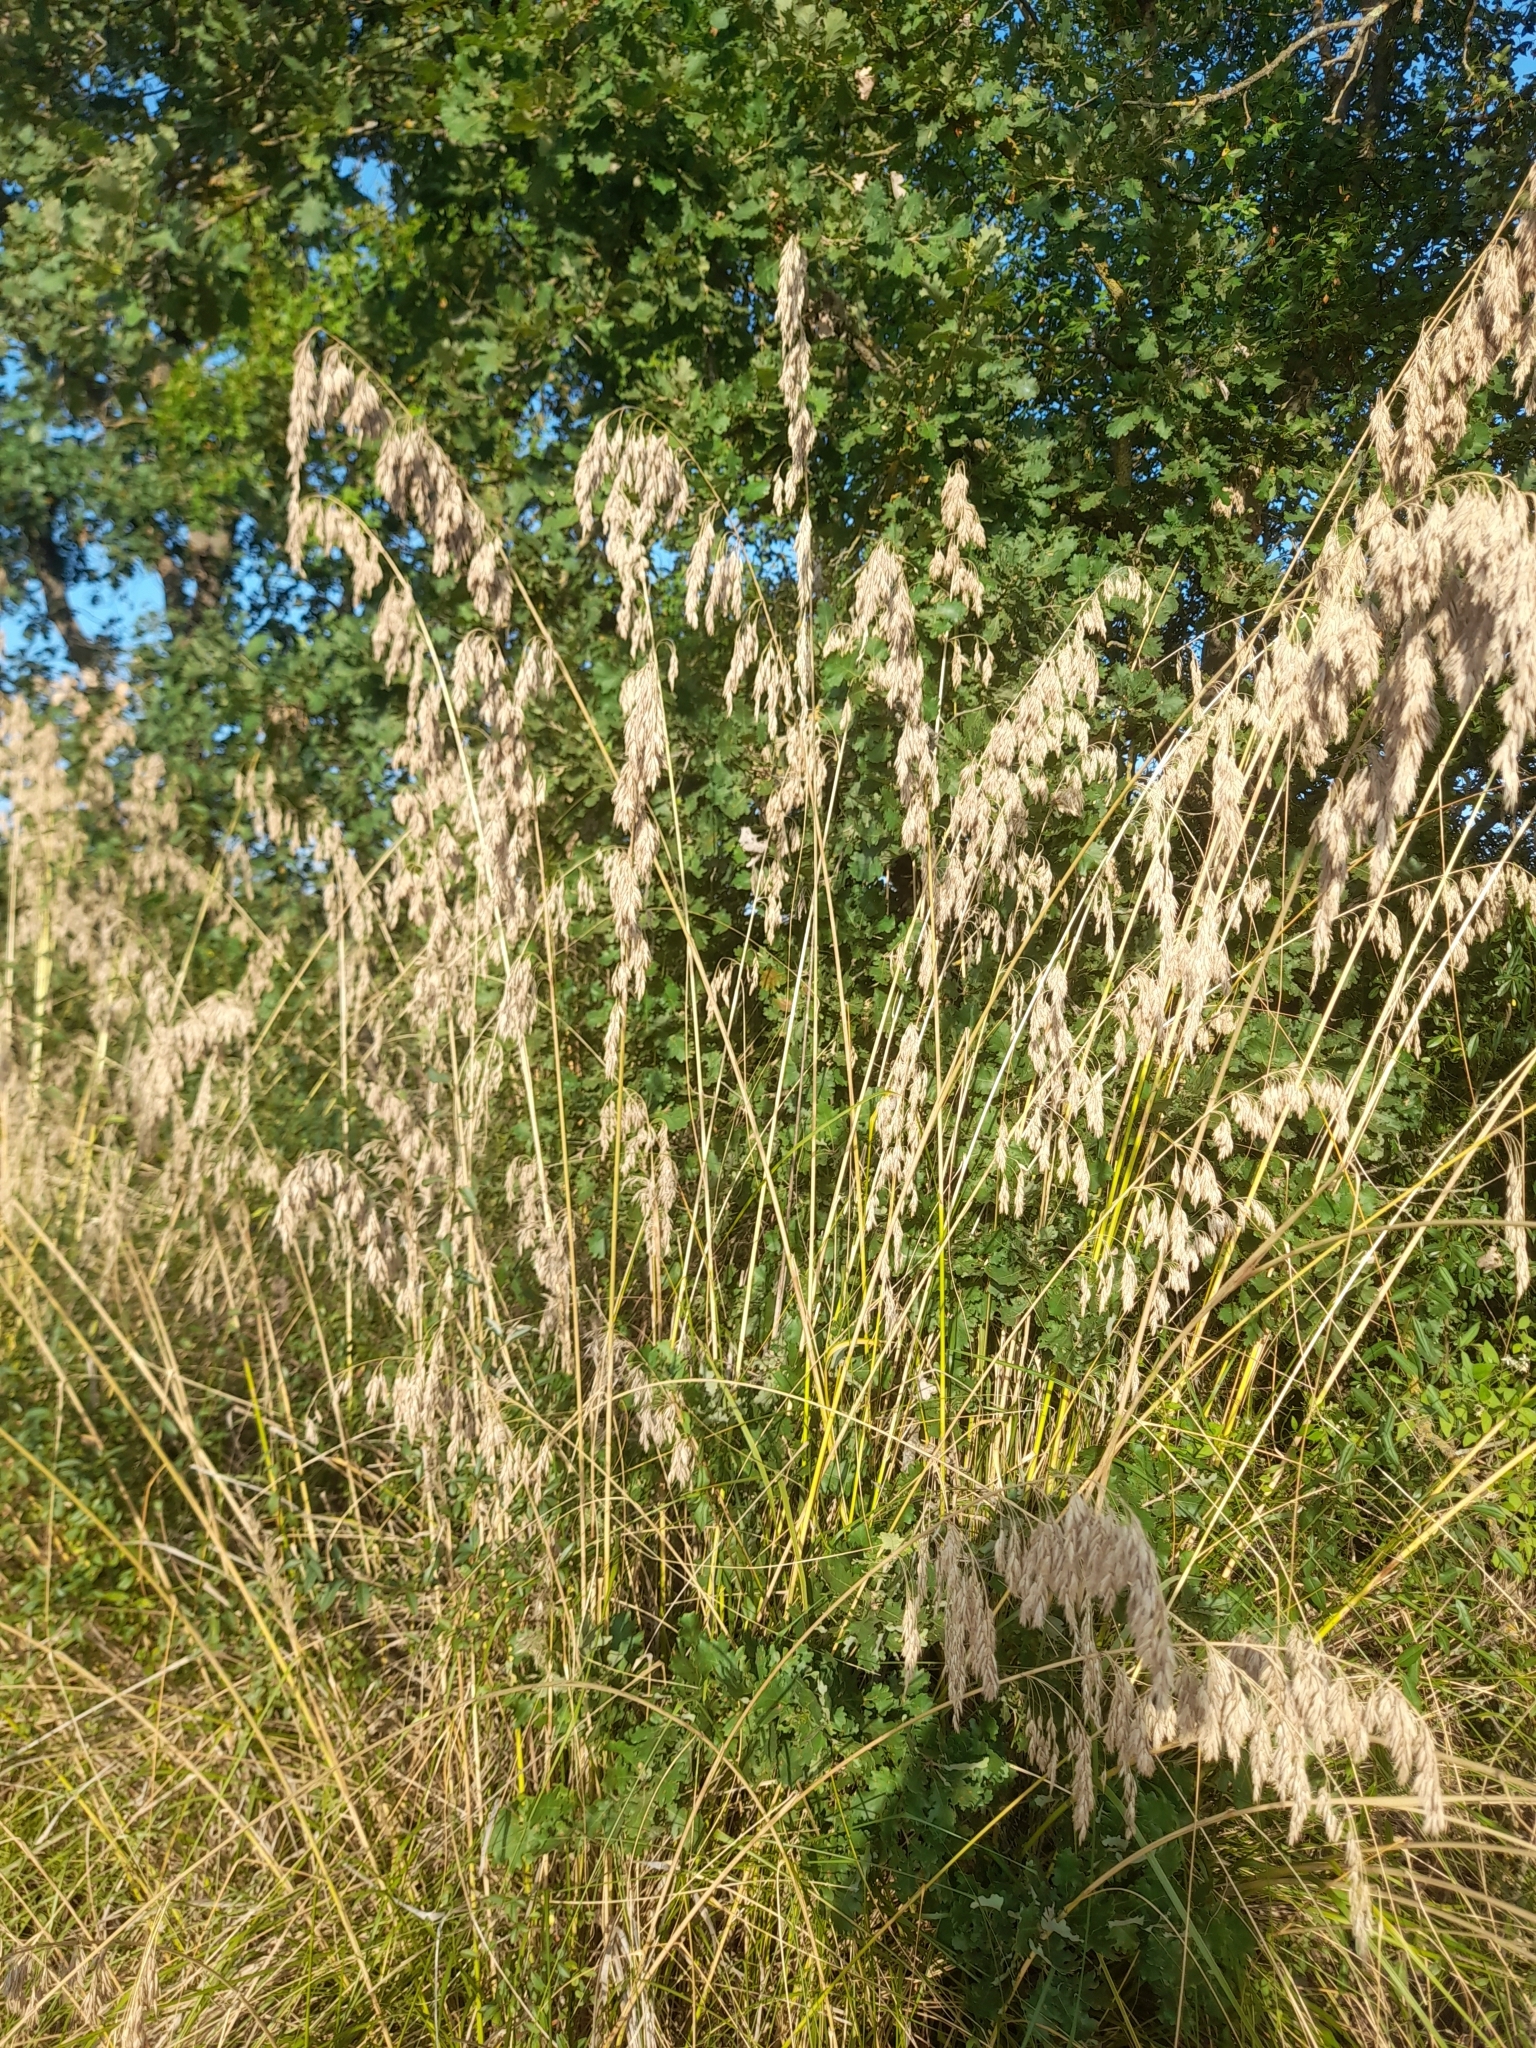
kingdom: Plantae
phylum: Tracheophyta
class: Liliopsida
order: Poales
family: Poaceae
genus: Ampelodesmos
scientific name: Ampelodesmos mauritanicus
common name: Mauritanian grass
